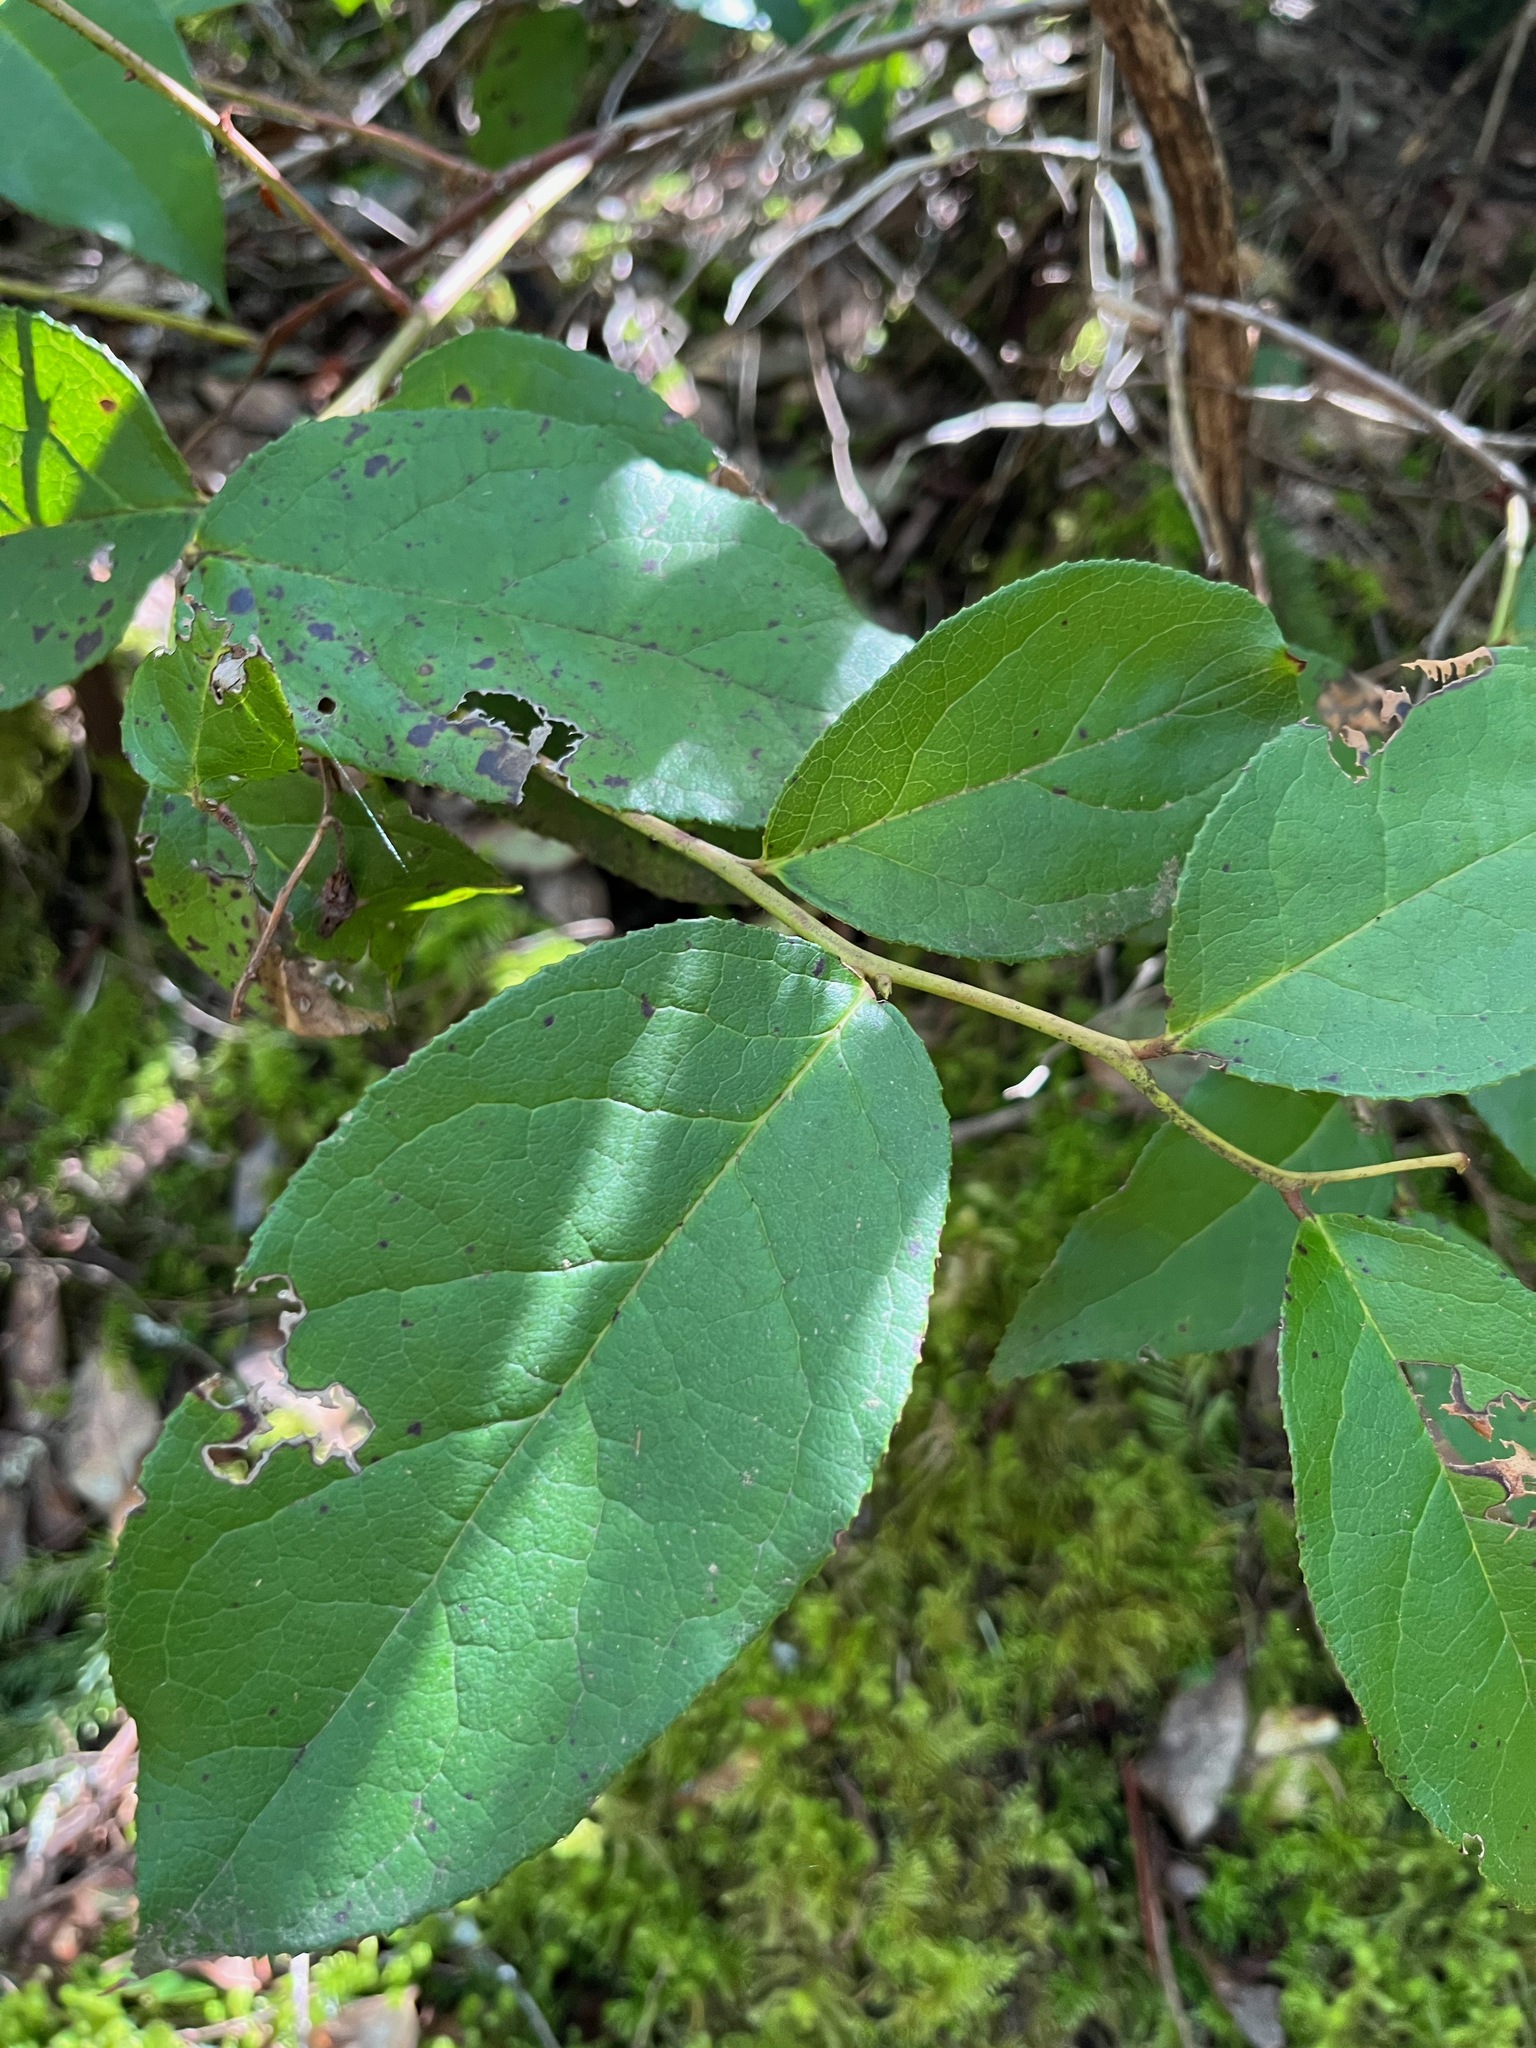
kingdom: Plantae
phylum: Tracheophyta
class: Magnoliopsida
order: Ericales
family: Ericaceae
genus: Gaultheria
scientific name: Gaultheria shallon
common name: Shallon
